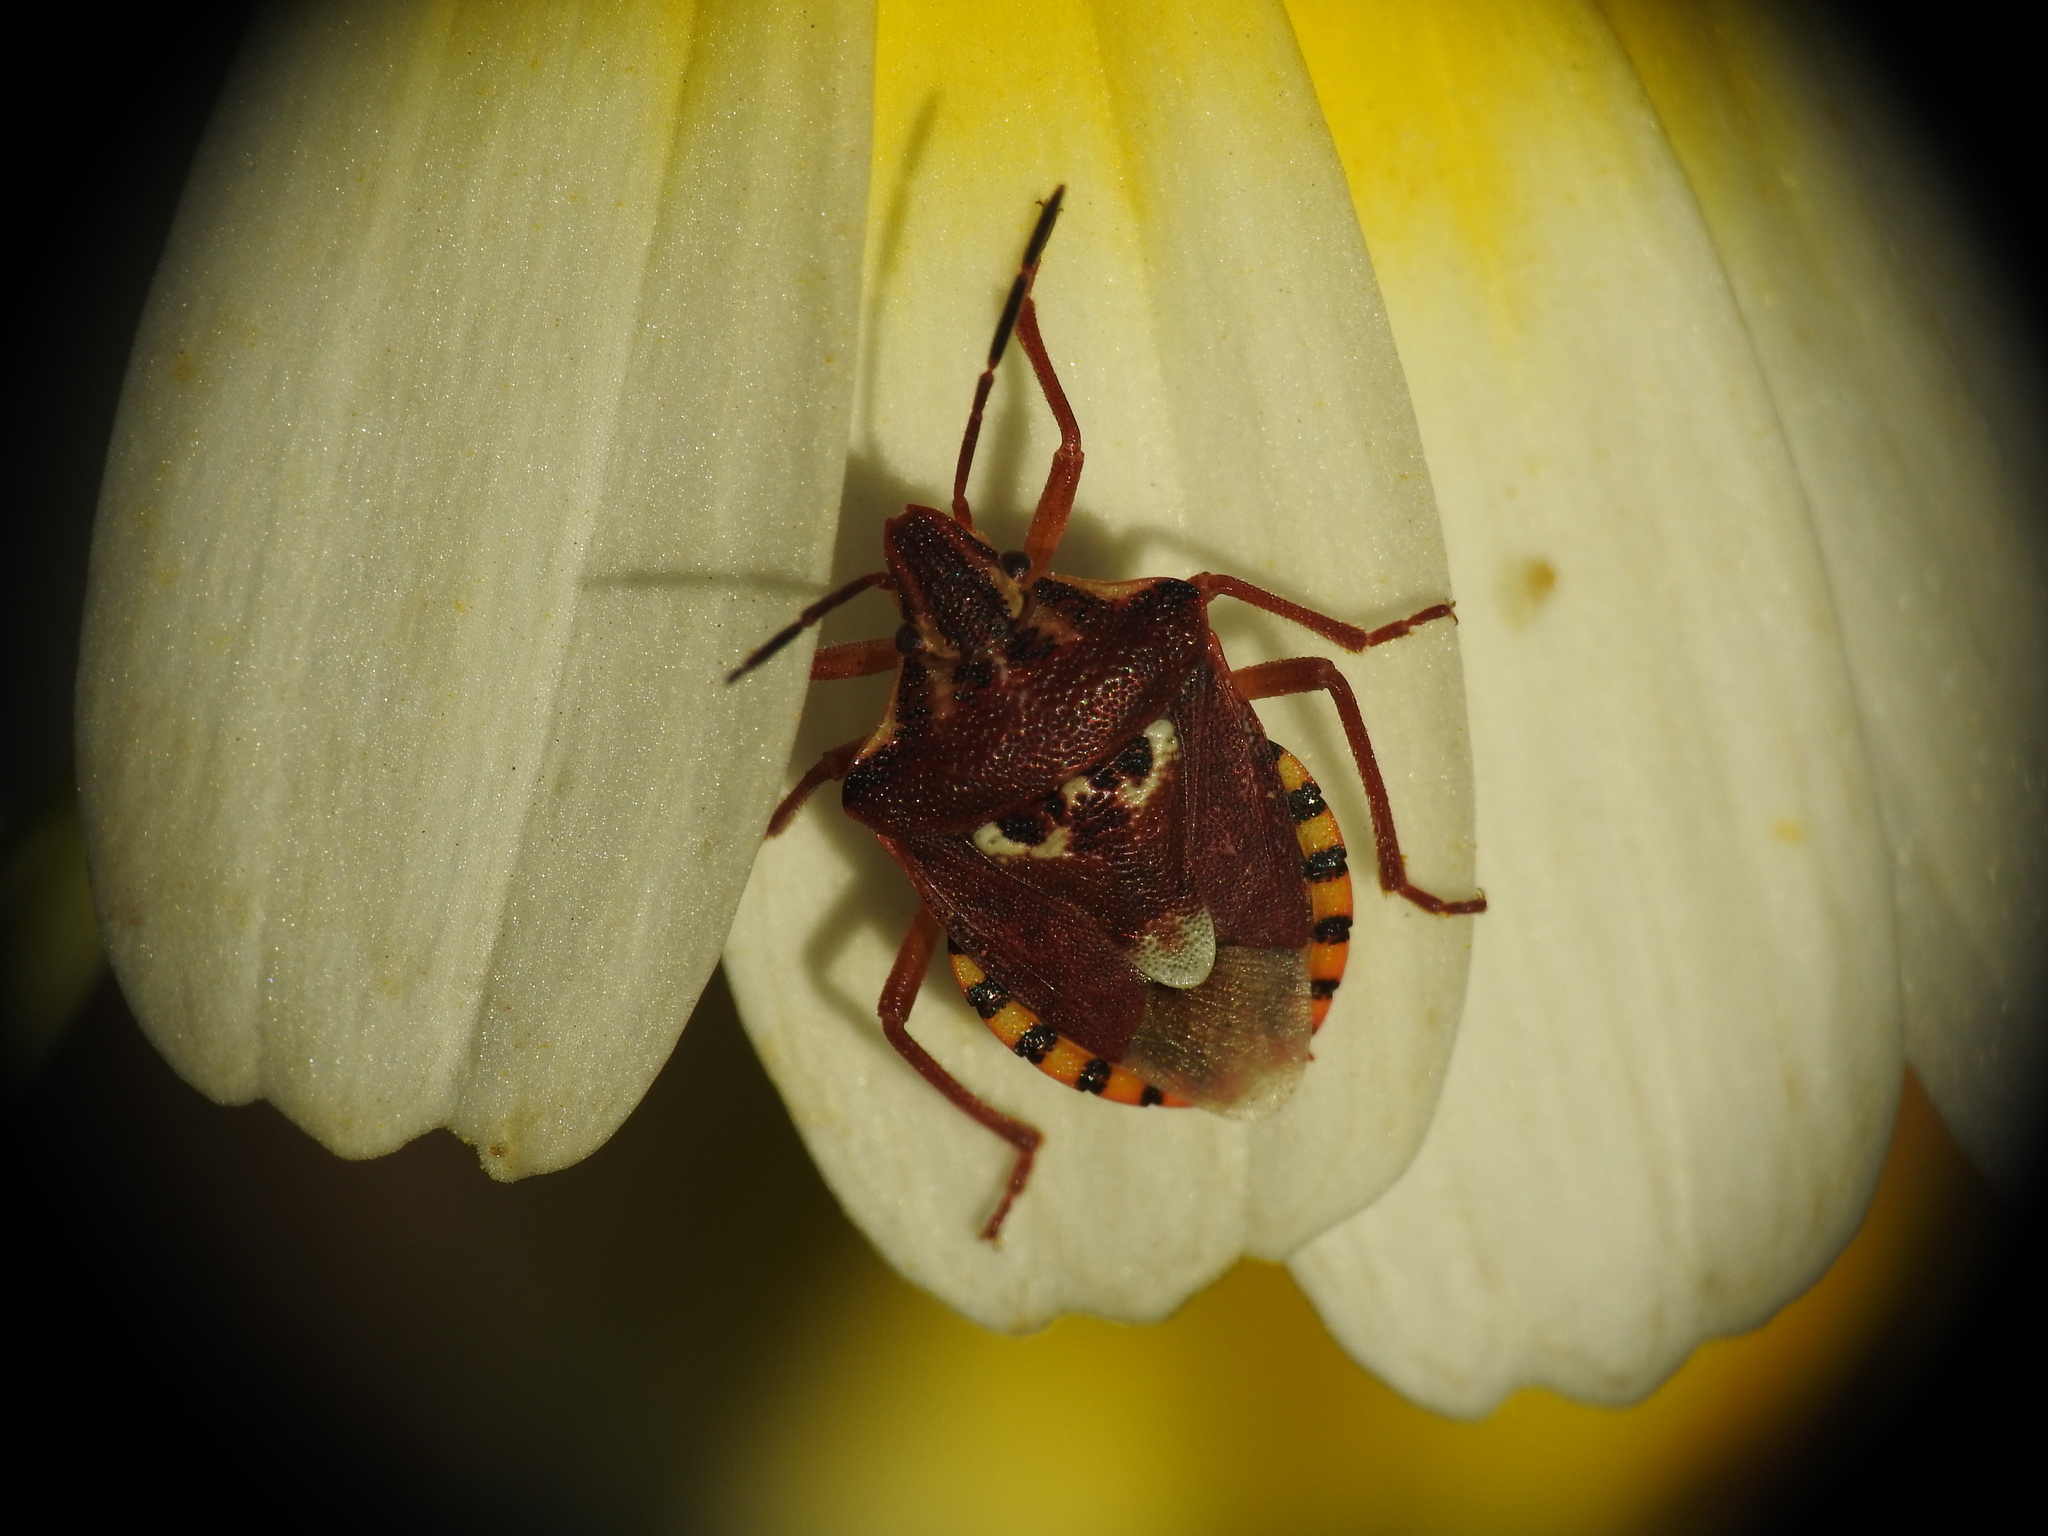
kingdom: Animalia
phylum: Arthropoda
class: Insecta
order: Hemiptera
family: Miridae
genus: Orthops
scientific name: Orthops kalmii
